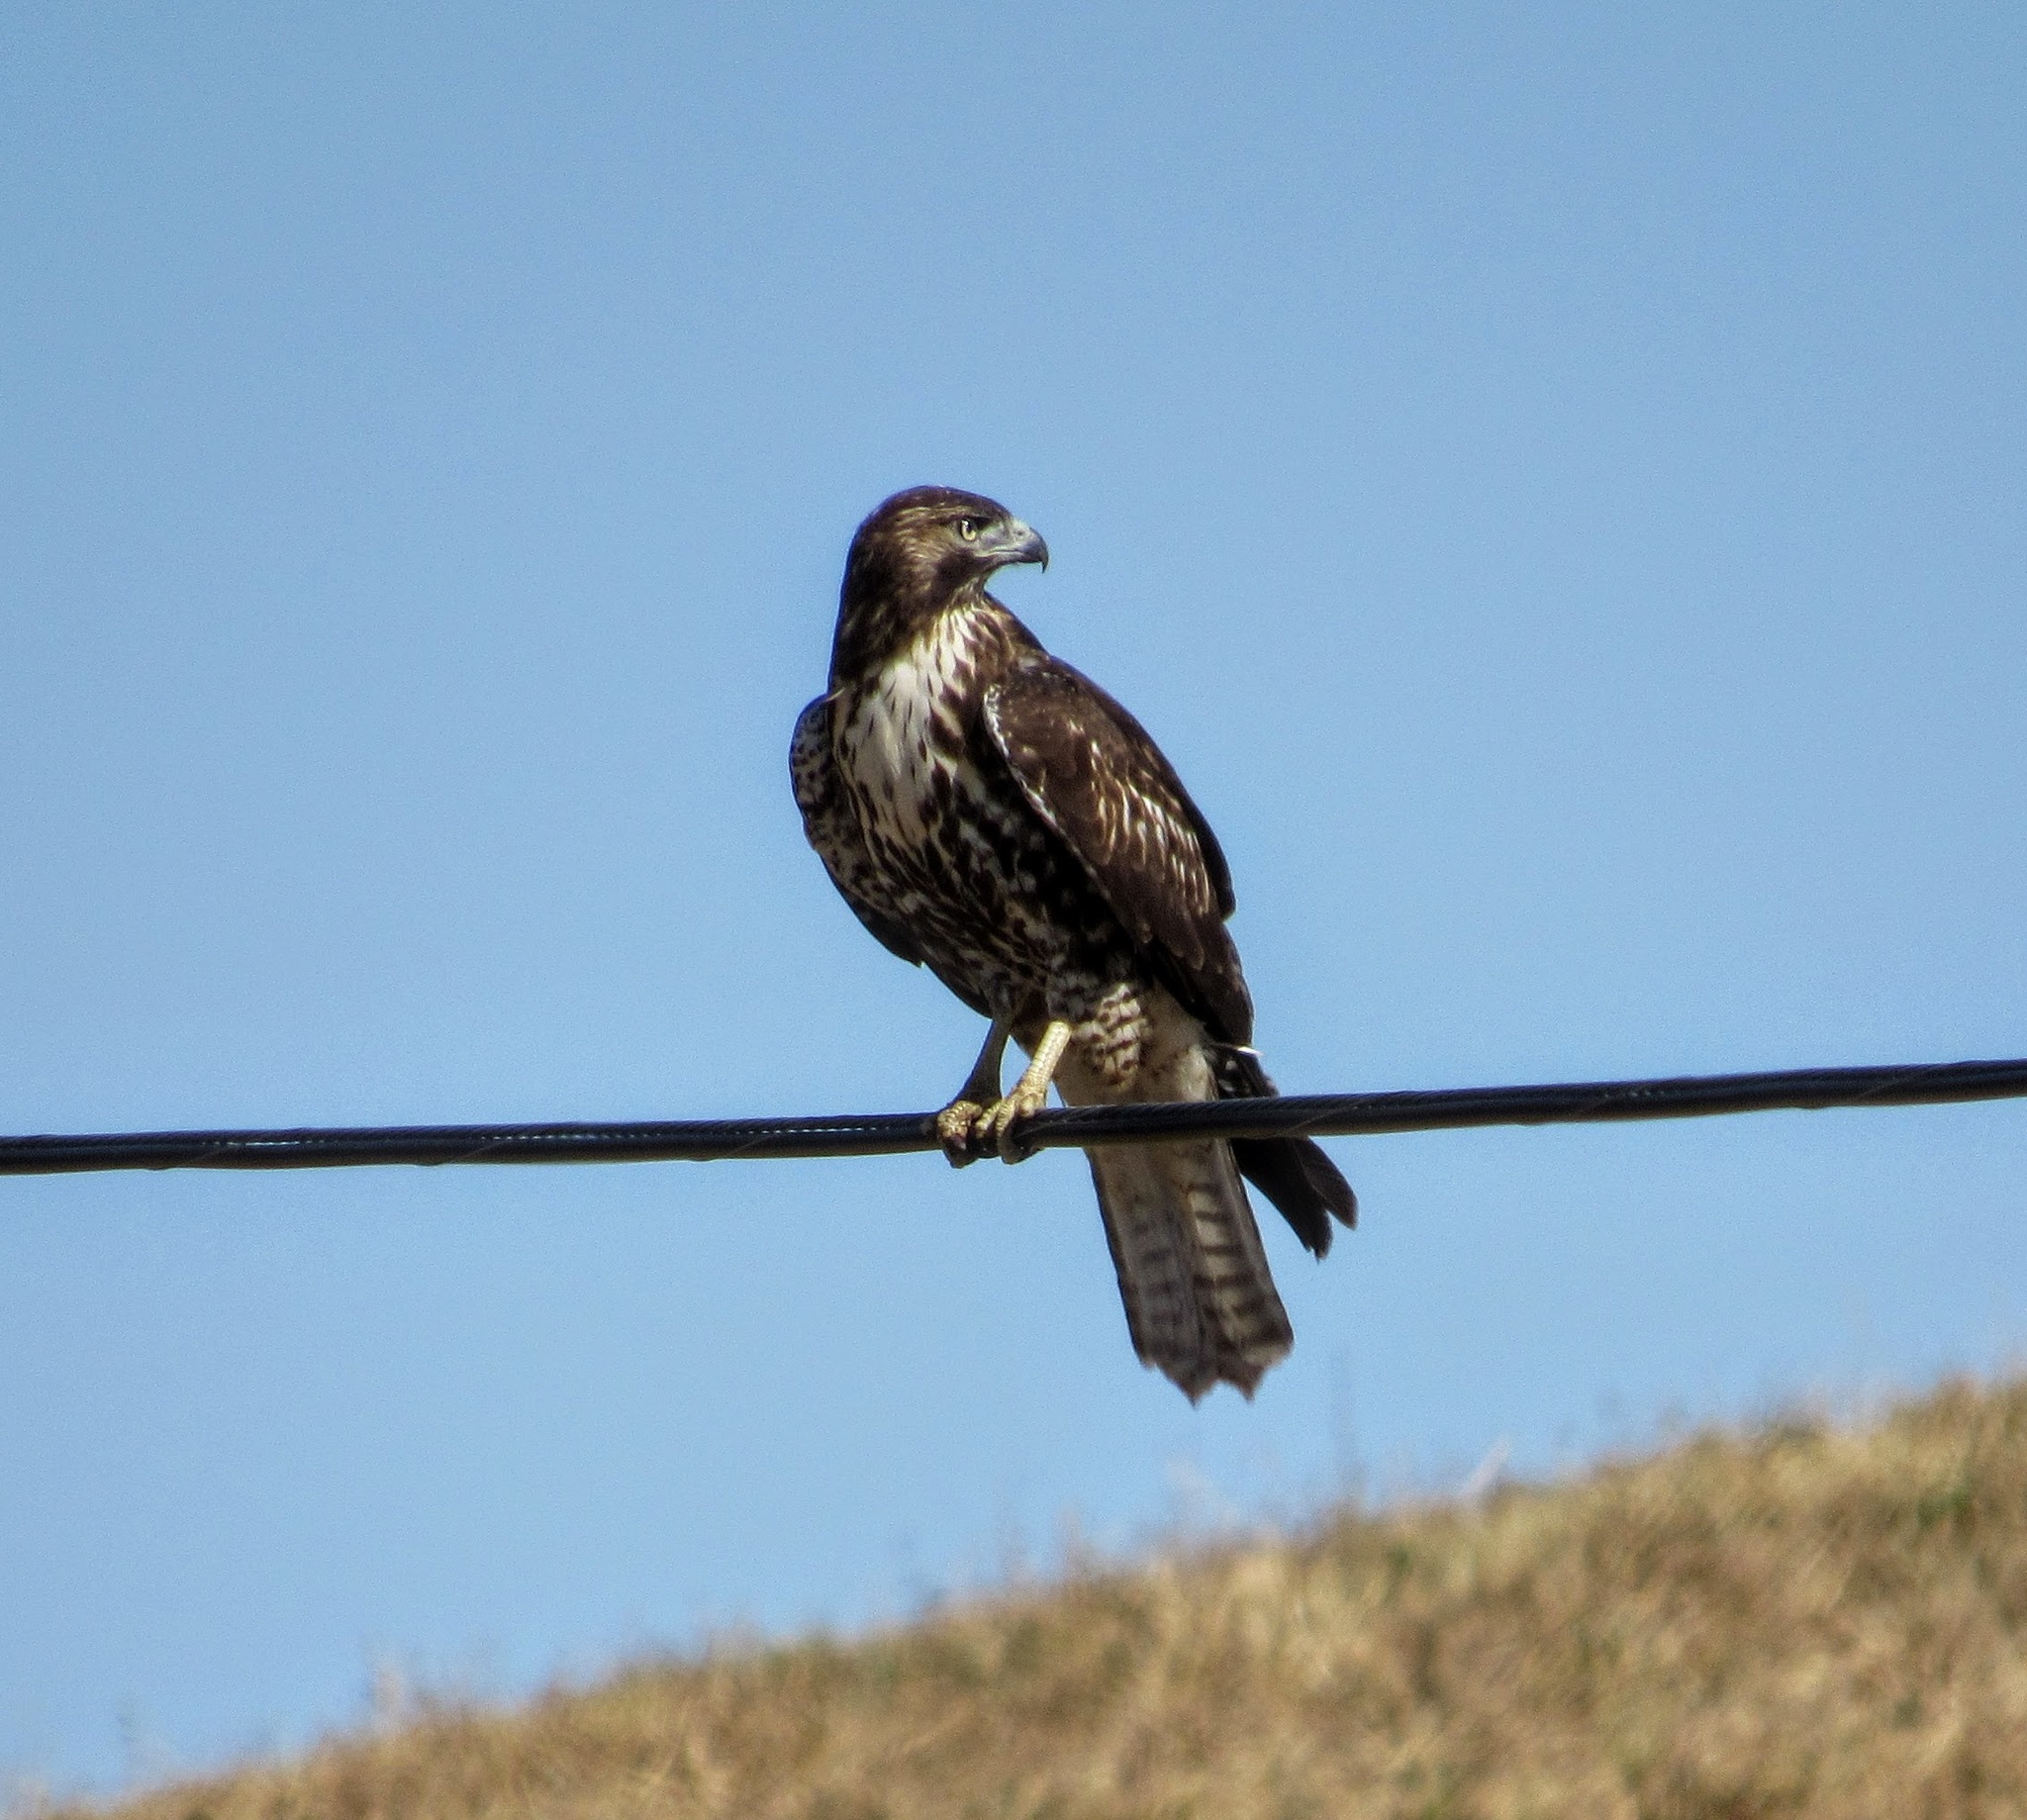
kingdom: Animalia
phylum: Chordata
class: Aves
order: Accipitriformes
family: Accipitridae
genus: Buteo
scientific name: Buteo jamaicensis
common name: Red-tailed hawk
